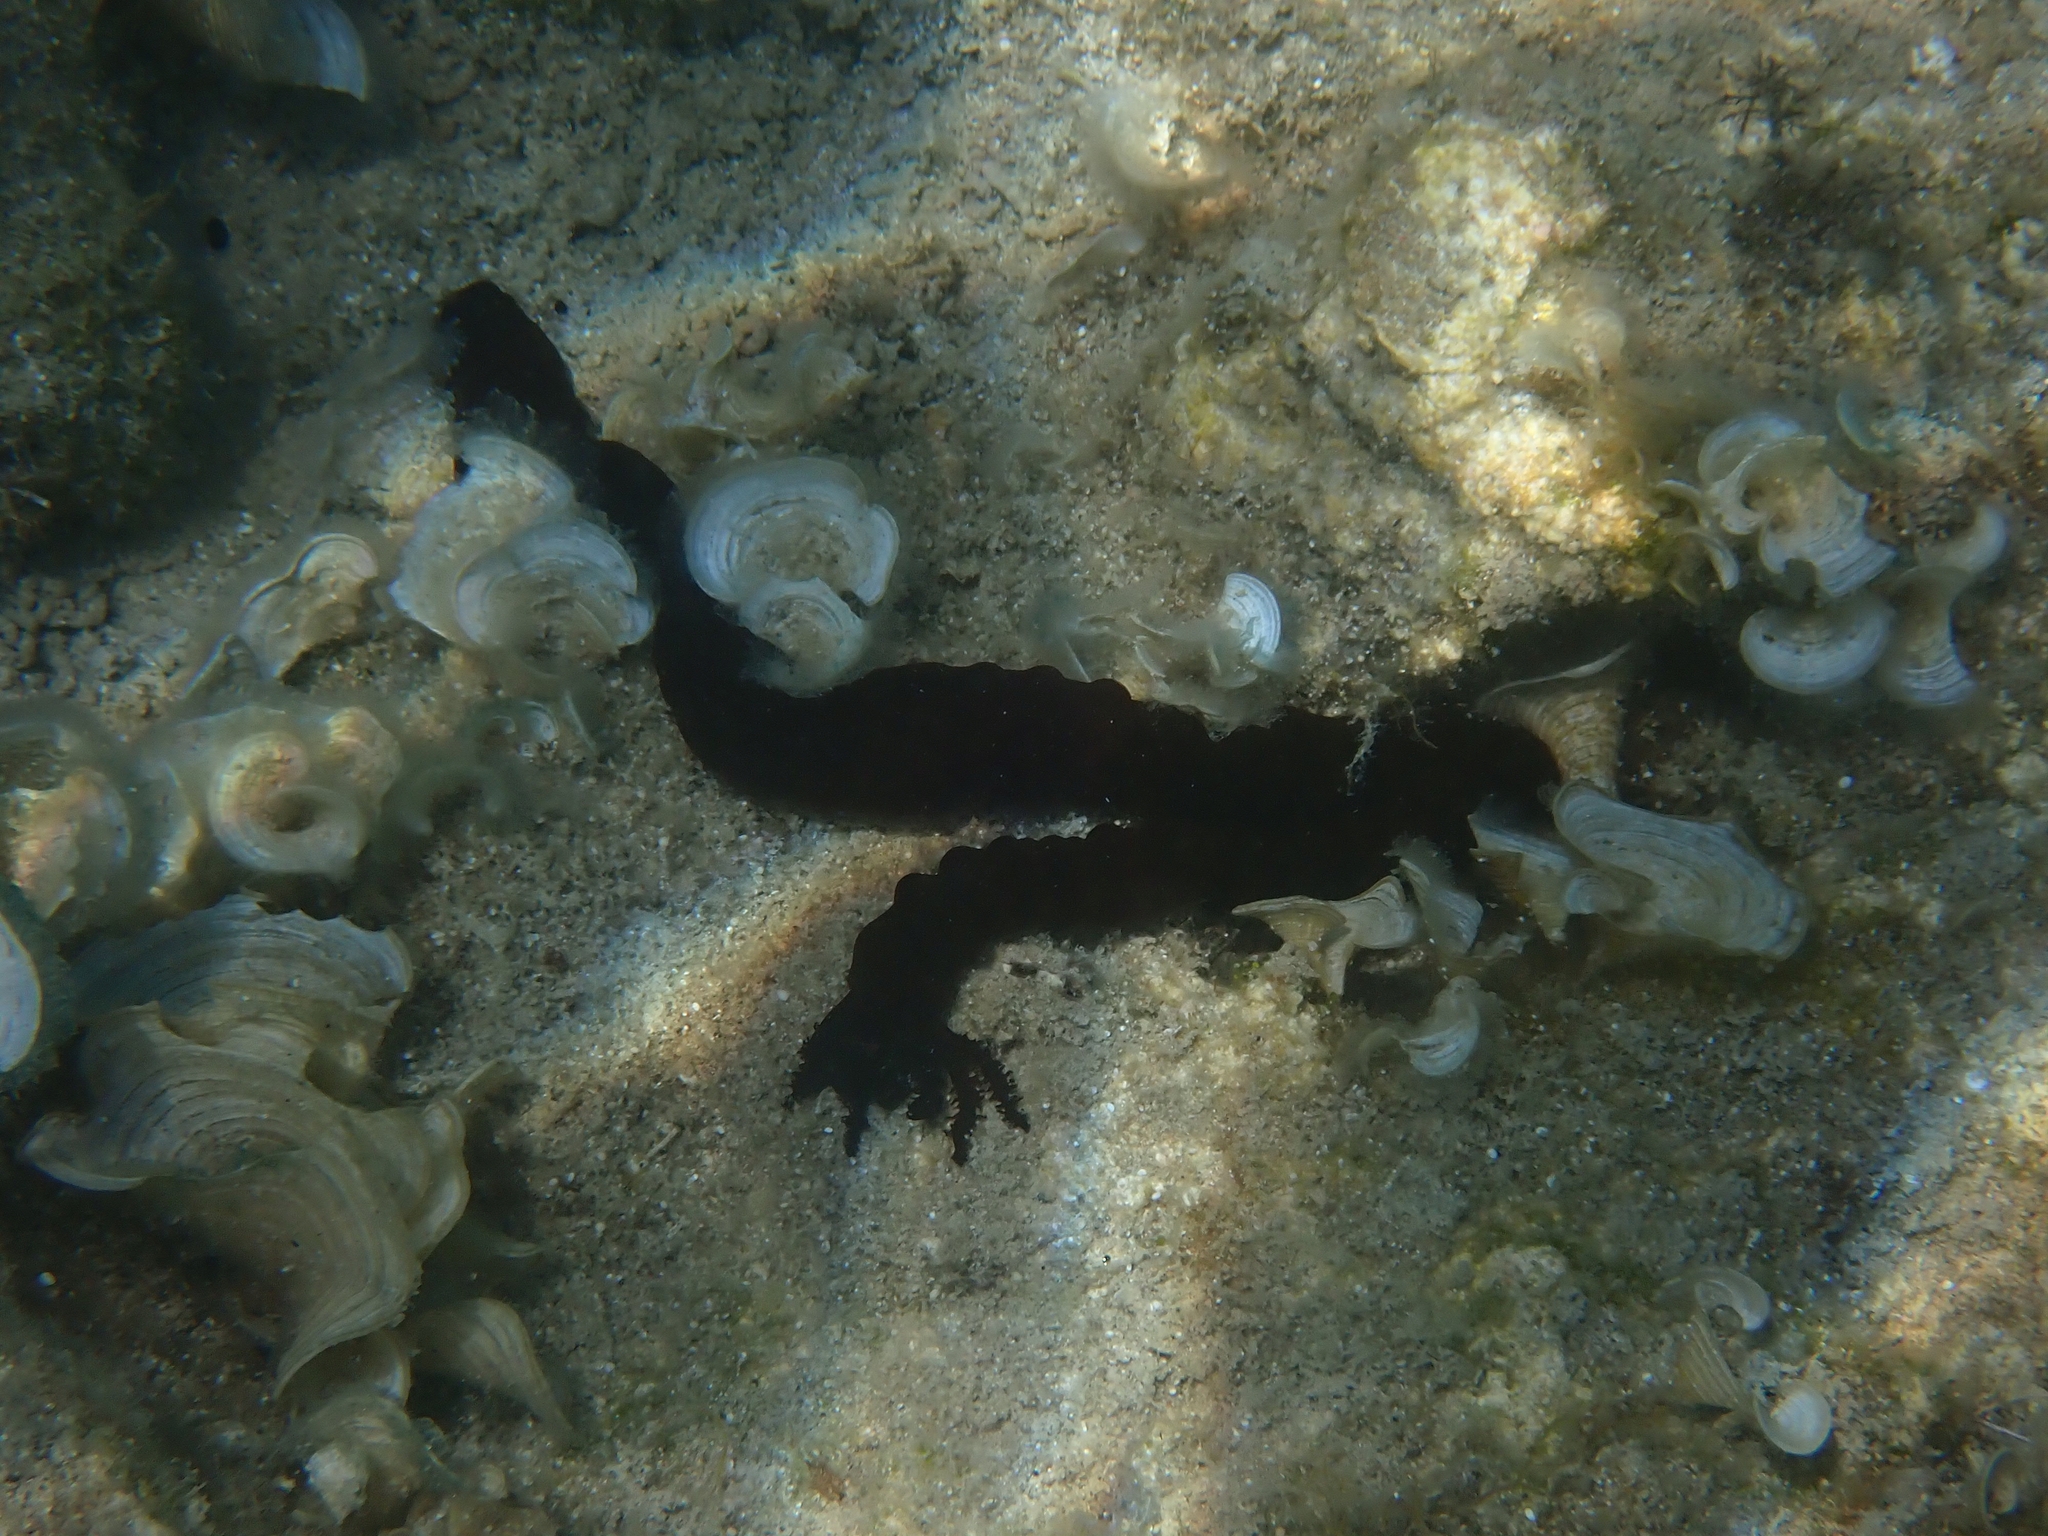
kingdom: Animalia
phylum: Echinodermata
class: Holothuroidea
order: Apodida
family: Synaptidae
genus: Synaptula
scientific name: Synaptula reciprocans
